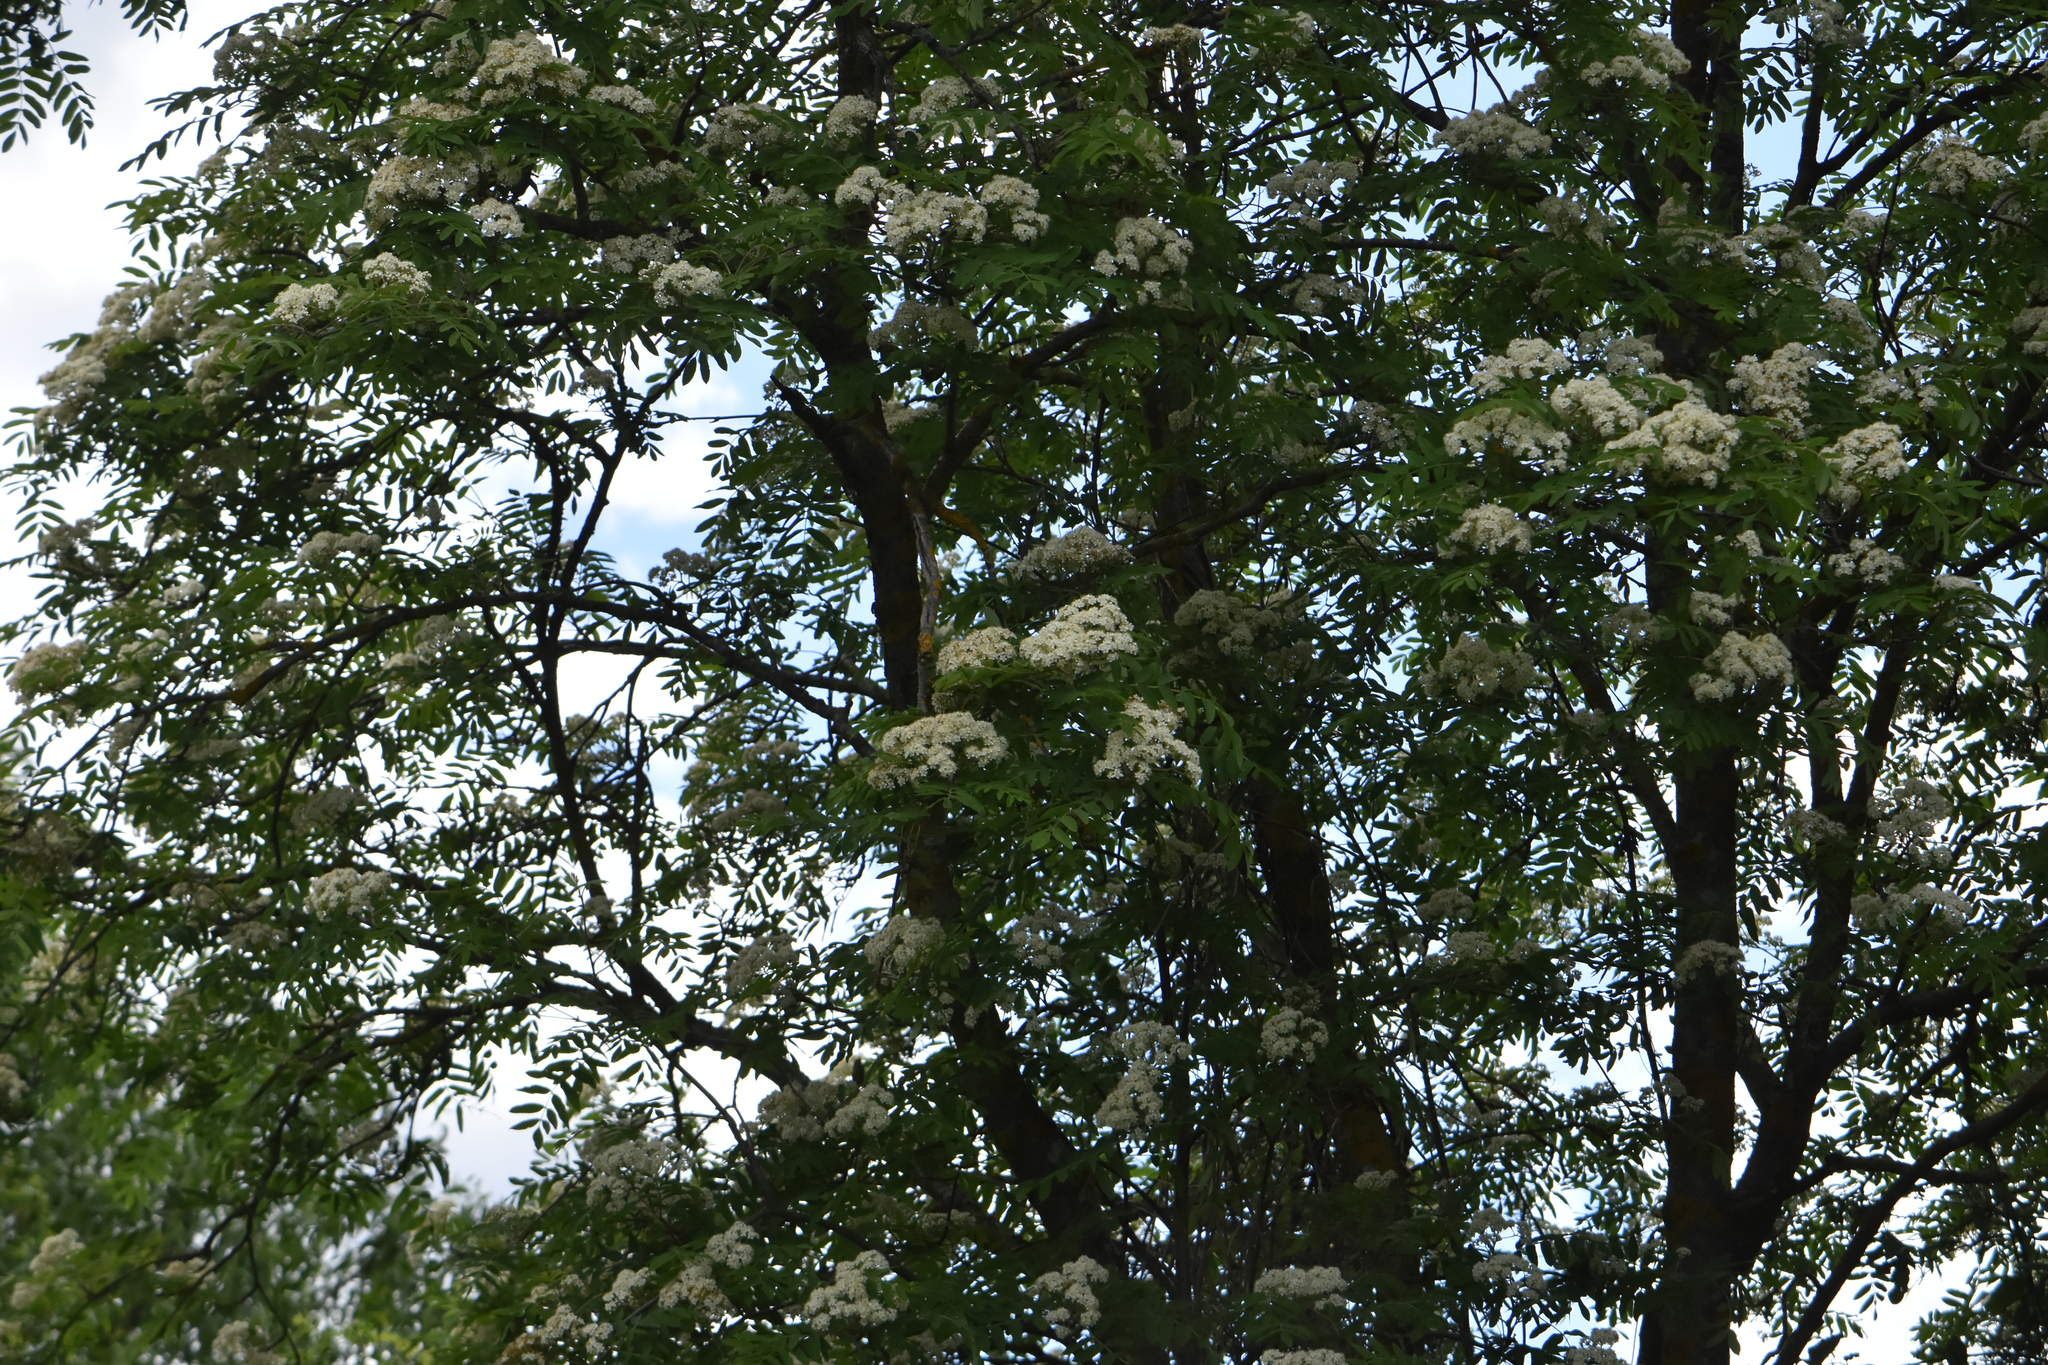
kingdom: Plantae
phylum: Tracheophyta
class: Magnoliopsida
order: Rosales
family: Rosaceae
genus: Sorbus
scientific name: Sorbus aucuparia
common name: Rowan
